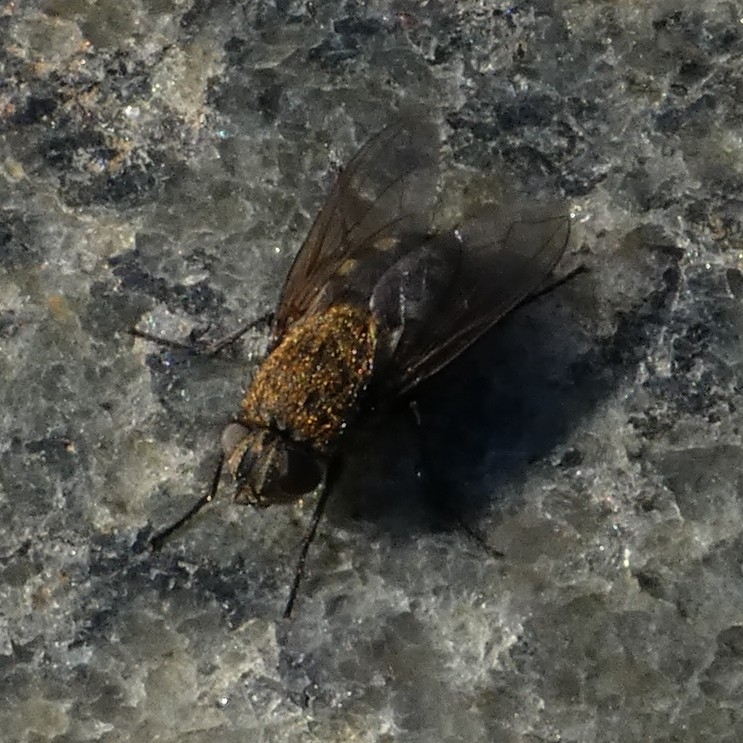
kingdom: Animalia
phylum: Arthropoda
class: Insecta
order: Diptera
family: Polleniidae
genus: Pollenia
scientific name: Pollenia
